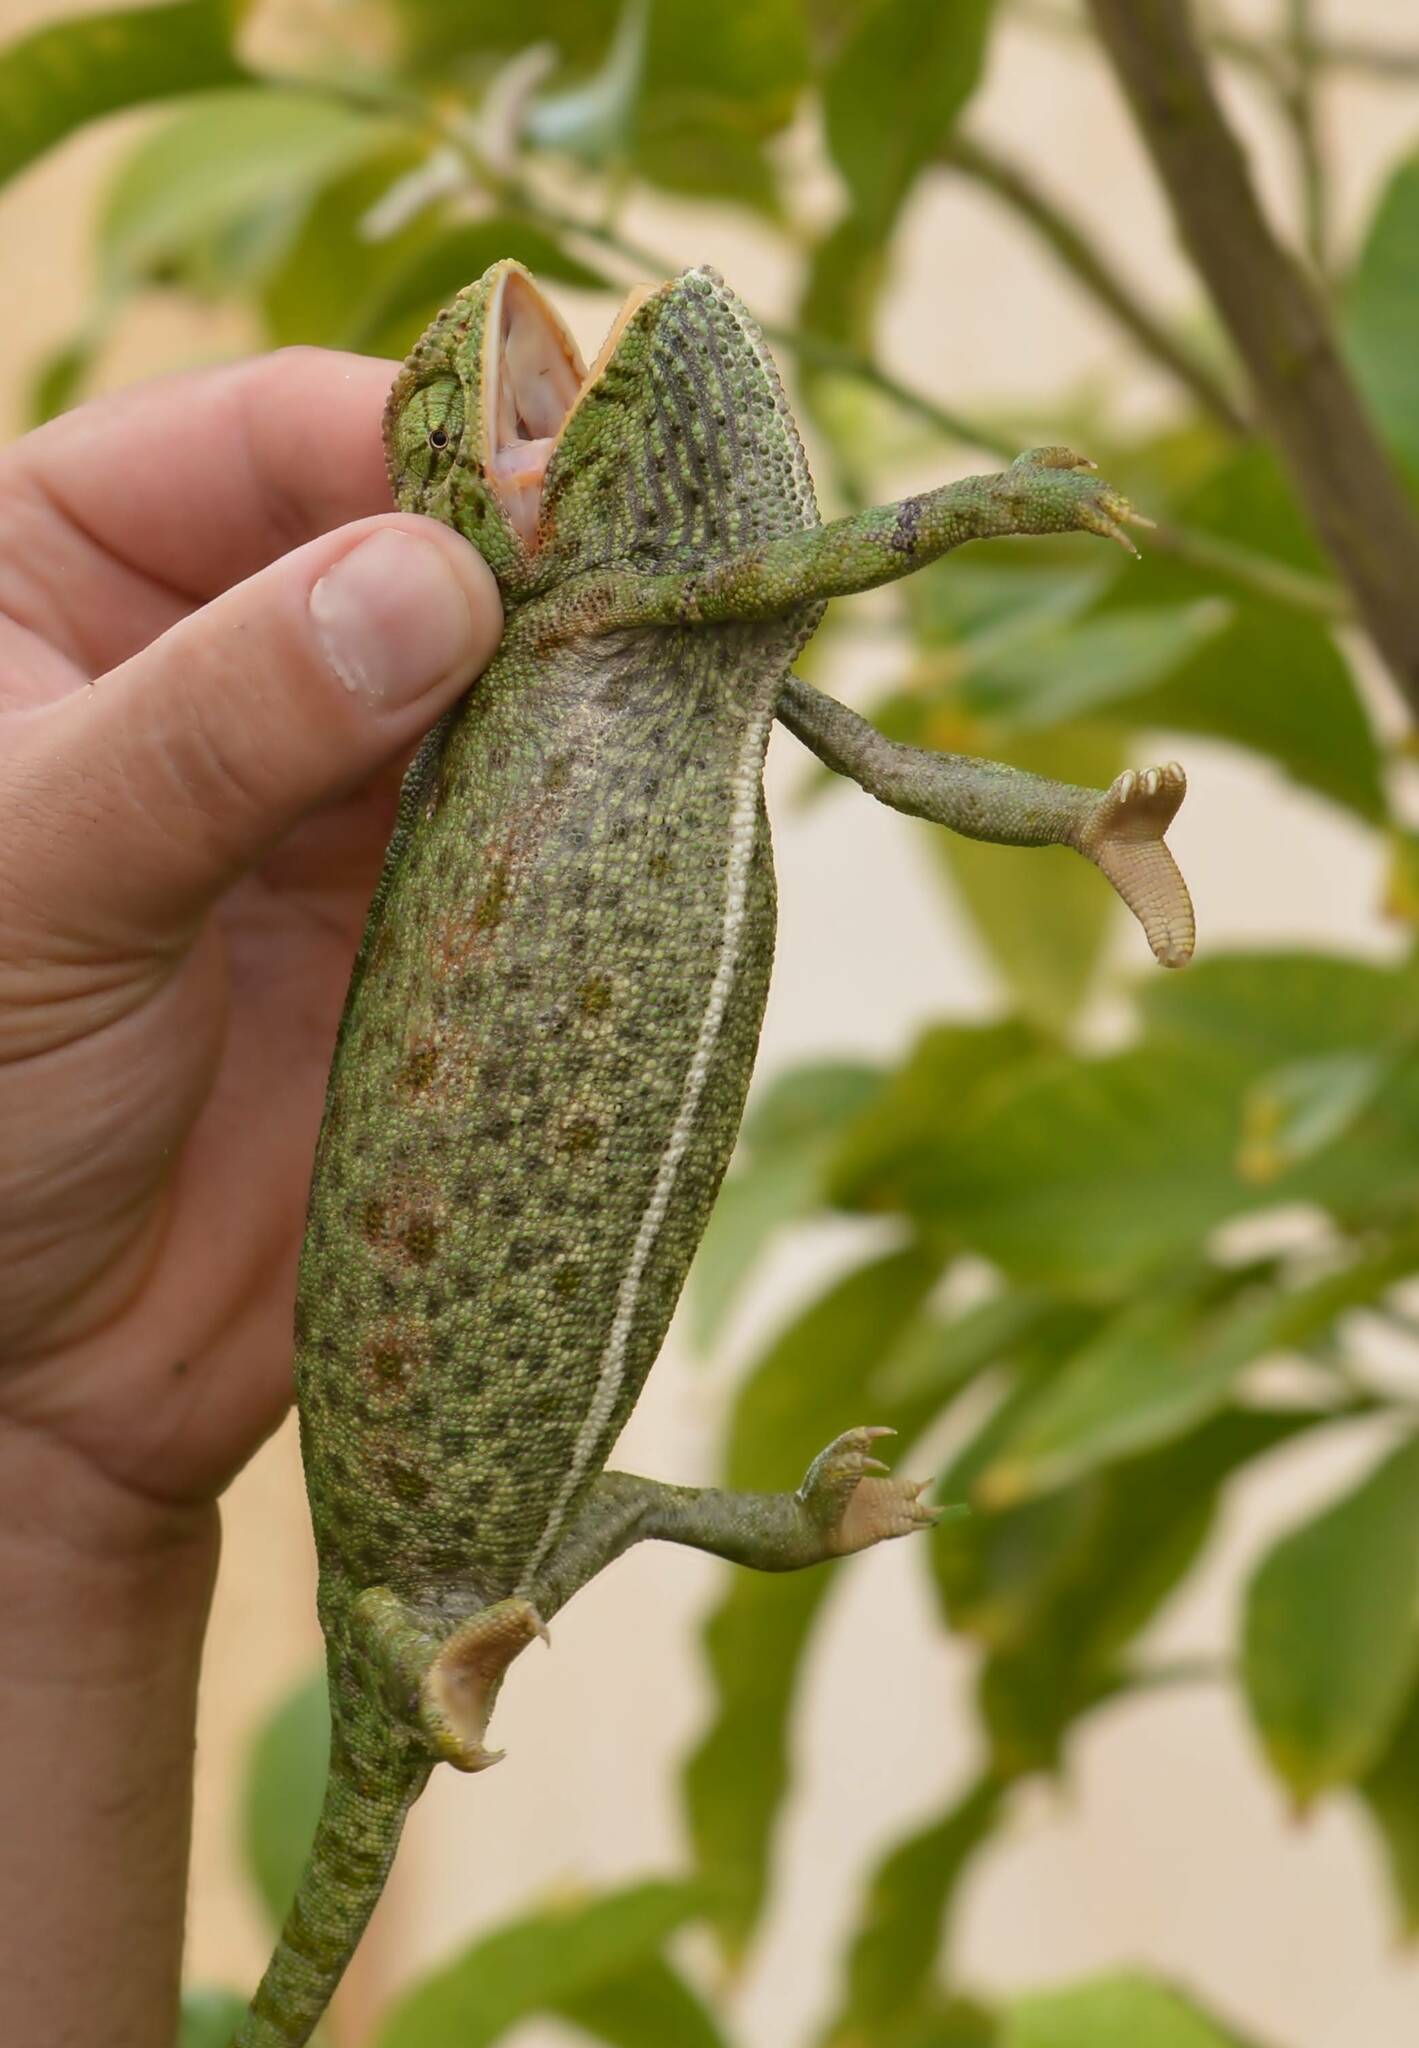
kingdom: Animalia
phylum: Chordata
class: Squamata
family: Chamaeleonidae
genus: Chamaeleo
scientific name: Chamaeleo chamaeleon
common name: Mediterranean chameleon
